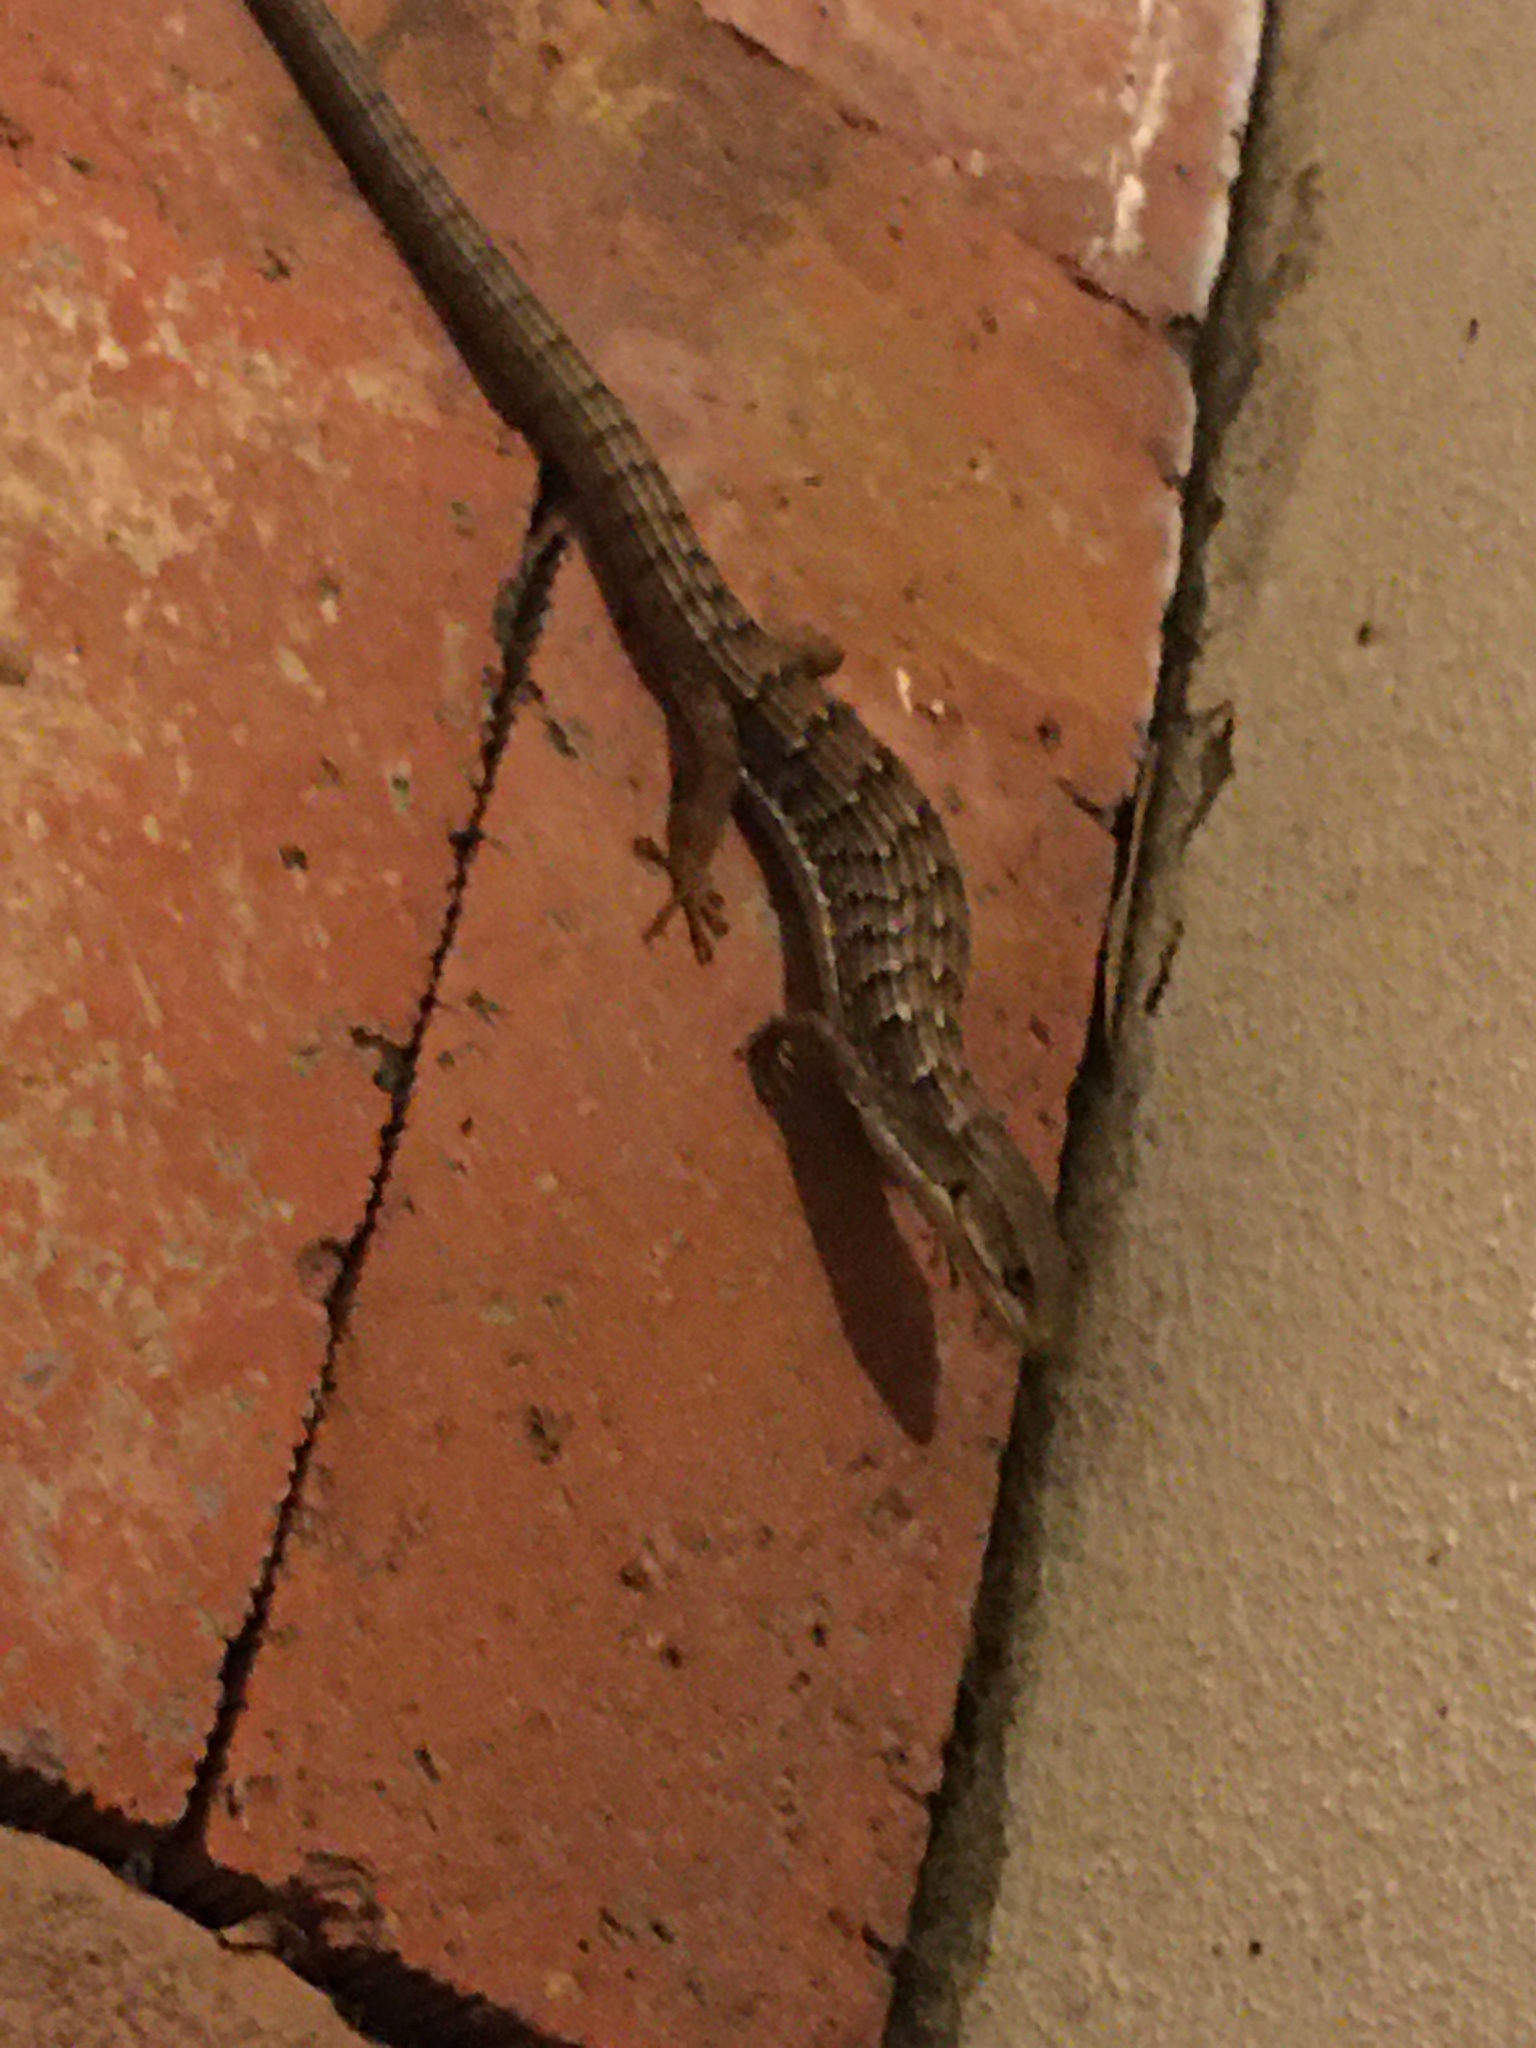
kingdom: Animalia
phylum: Chordata
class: Squamata
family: Anguidae
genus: Elgaria
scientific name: Elgaria multicarinata
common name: Southern alligator lizard
